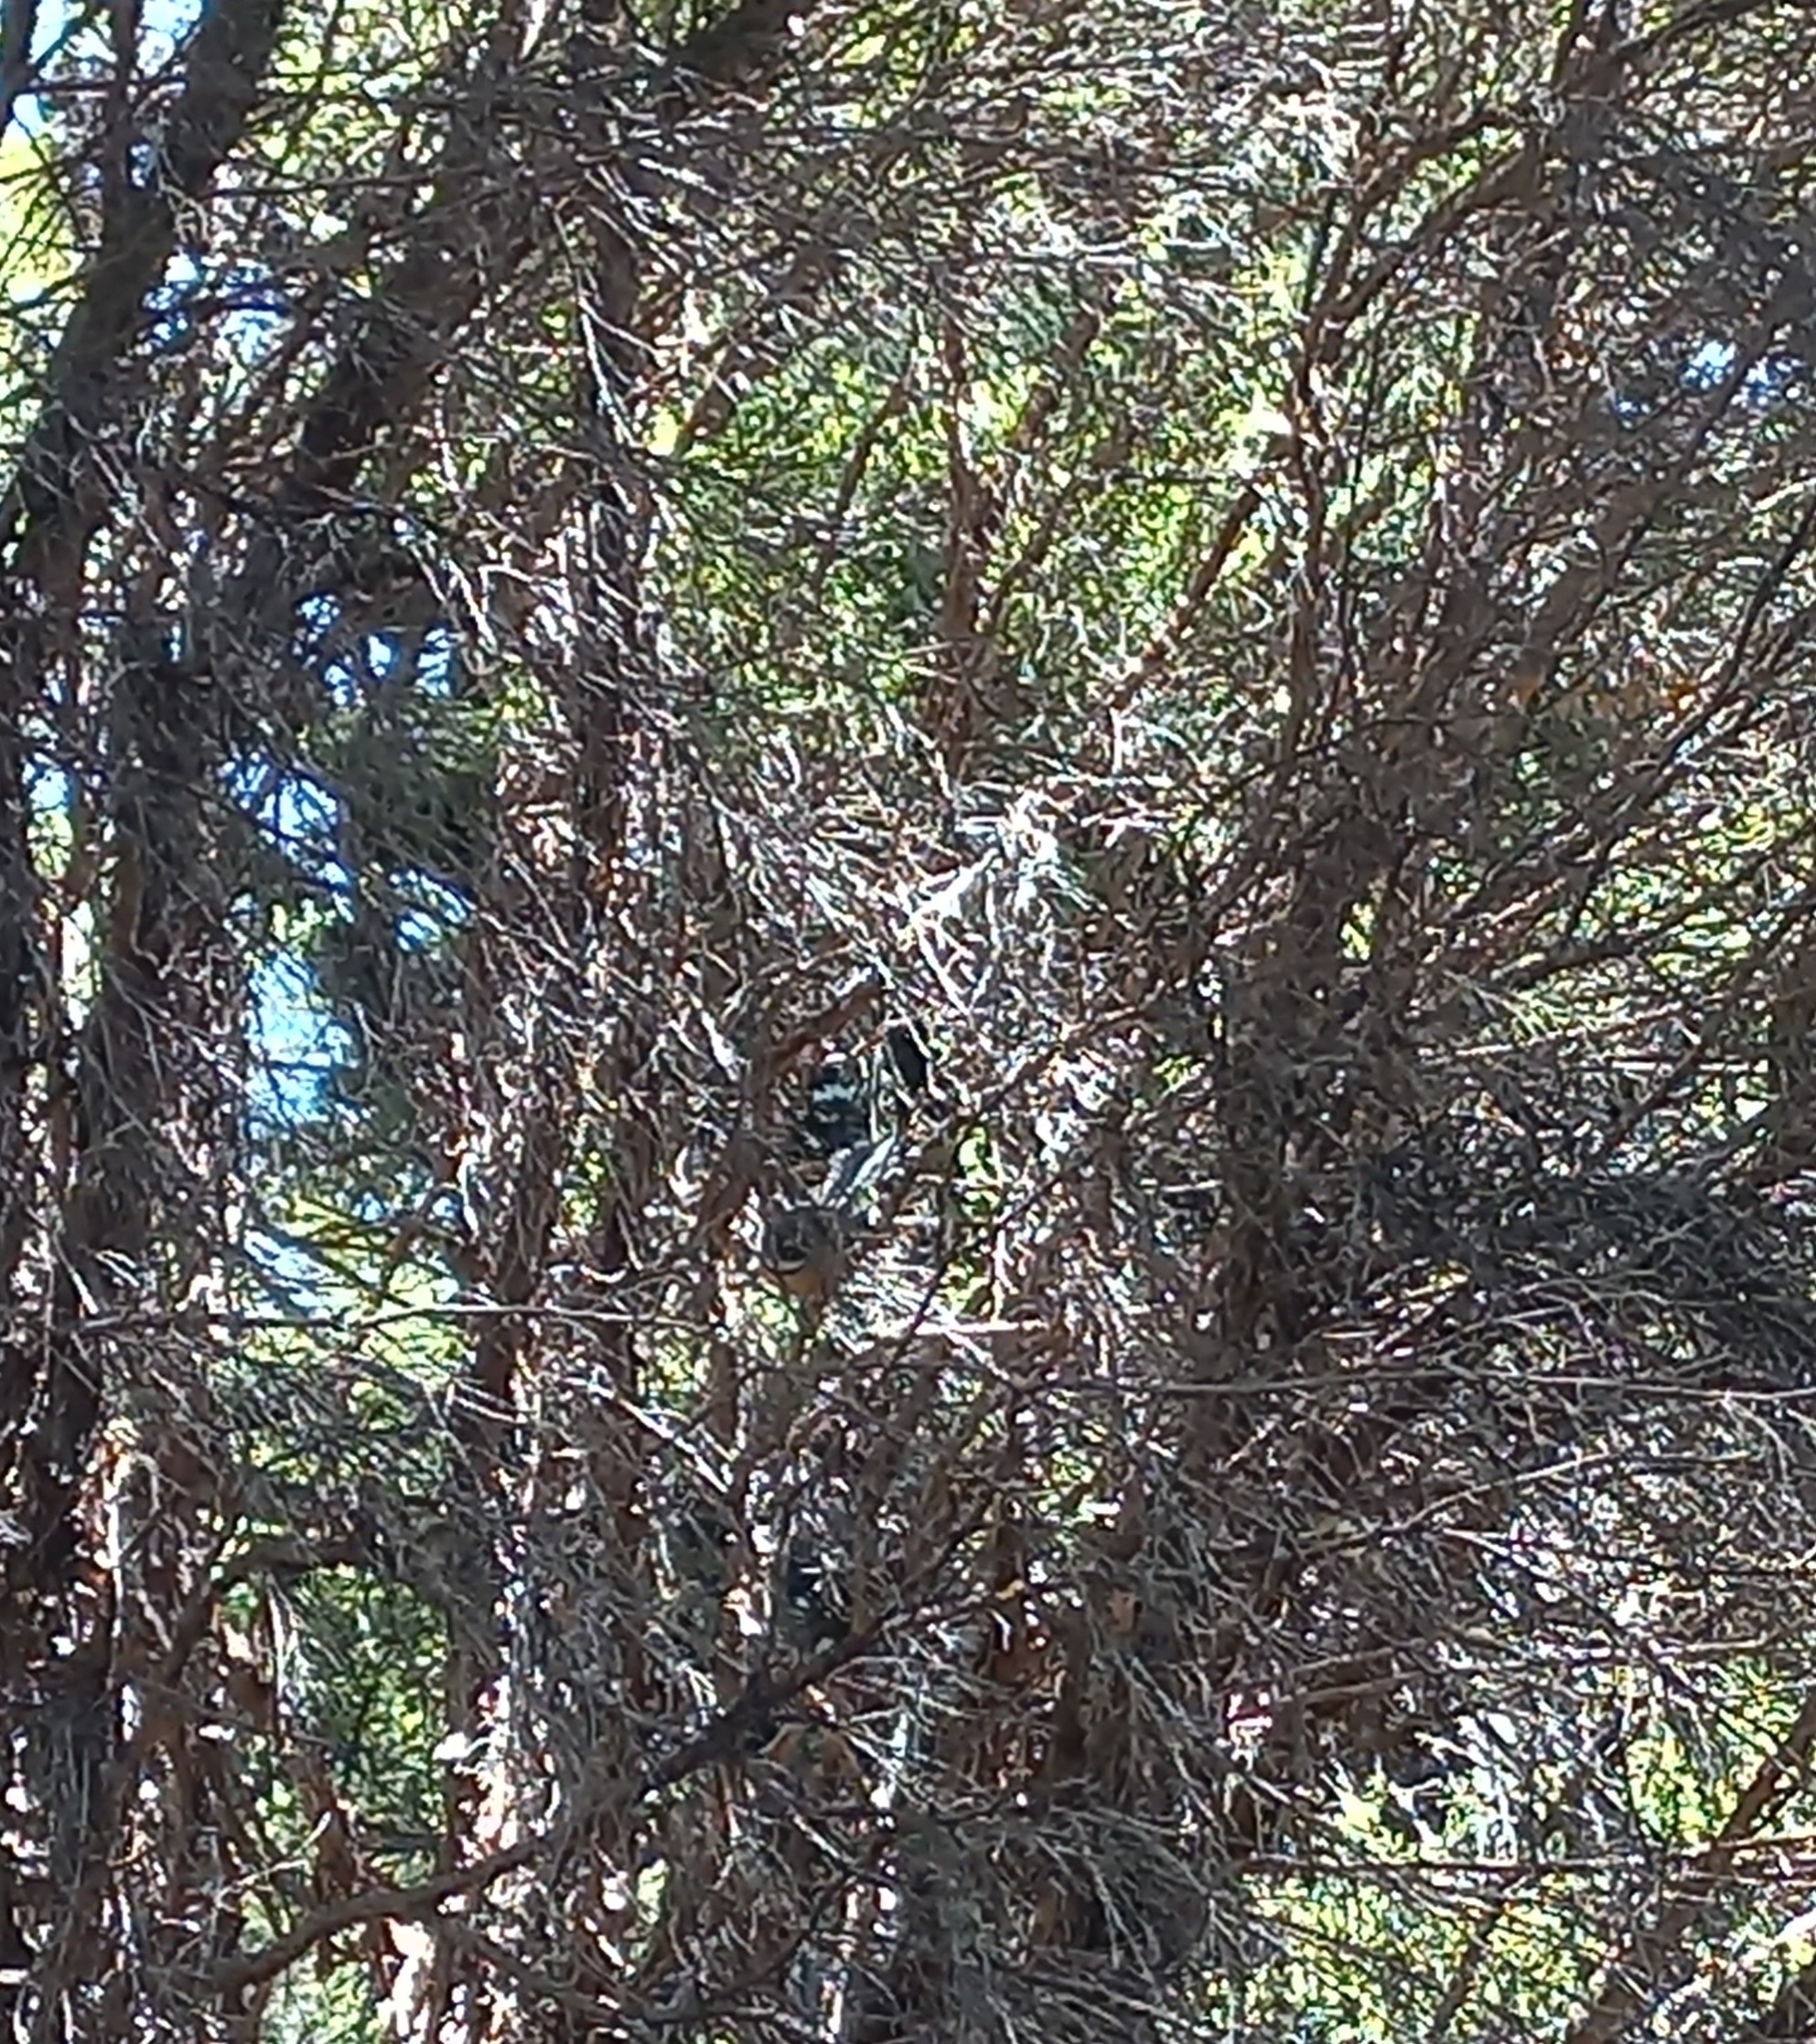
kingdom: Animalia
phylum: Chordata
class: Aves
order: Passeriformes
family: Rhipiduridae
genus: Rhipidura
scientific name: Rhipidura fuliginosa
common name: New zealand fantail
